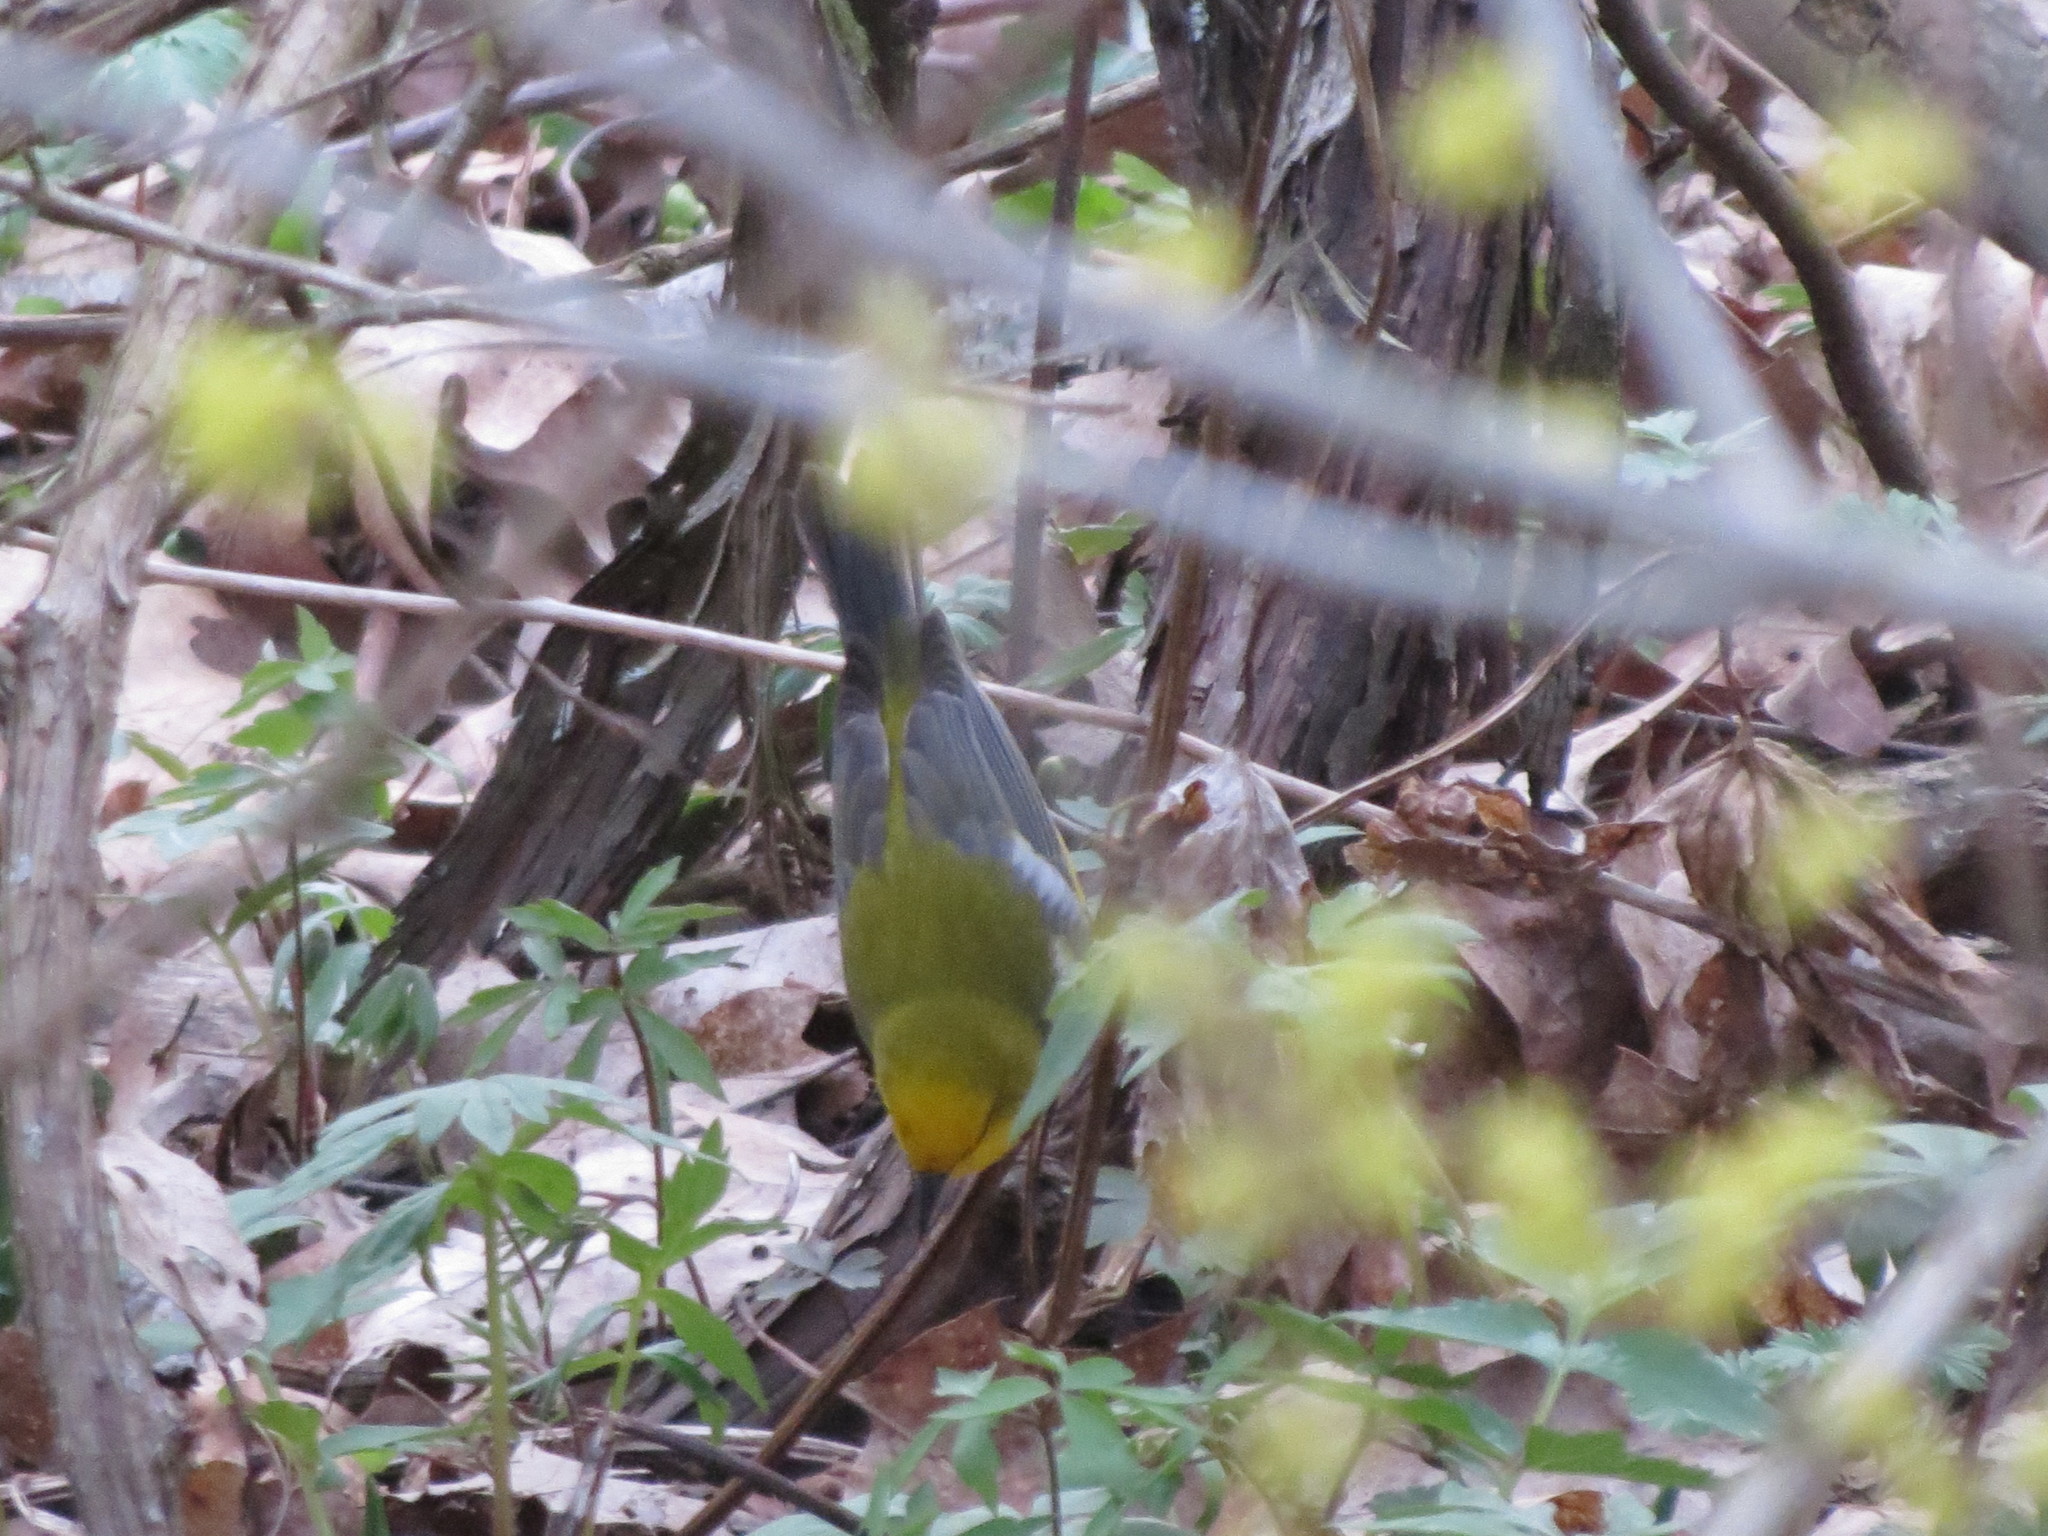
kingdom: Animalia
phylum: Chordata
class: Aves
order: Passeriformes
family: Parulidae
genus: Vermivora
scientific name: Vermivora cyanoptera
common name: Blue-winged warbler
